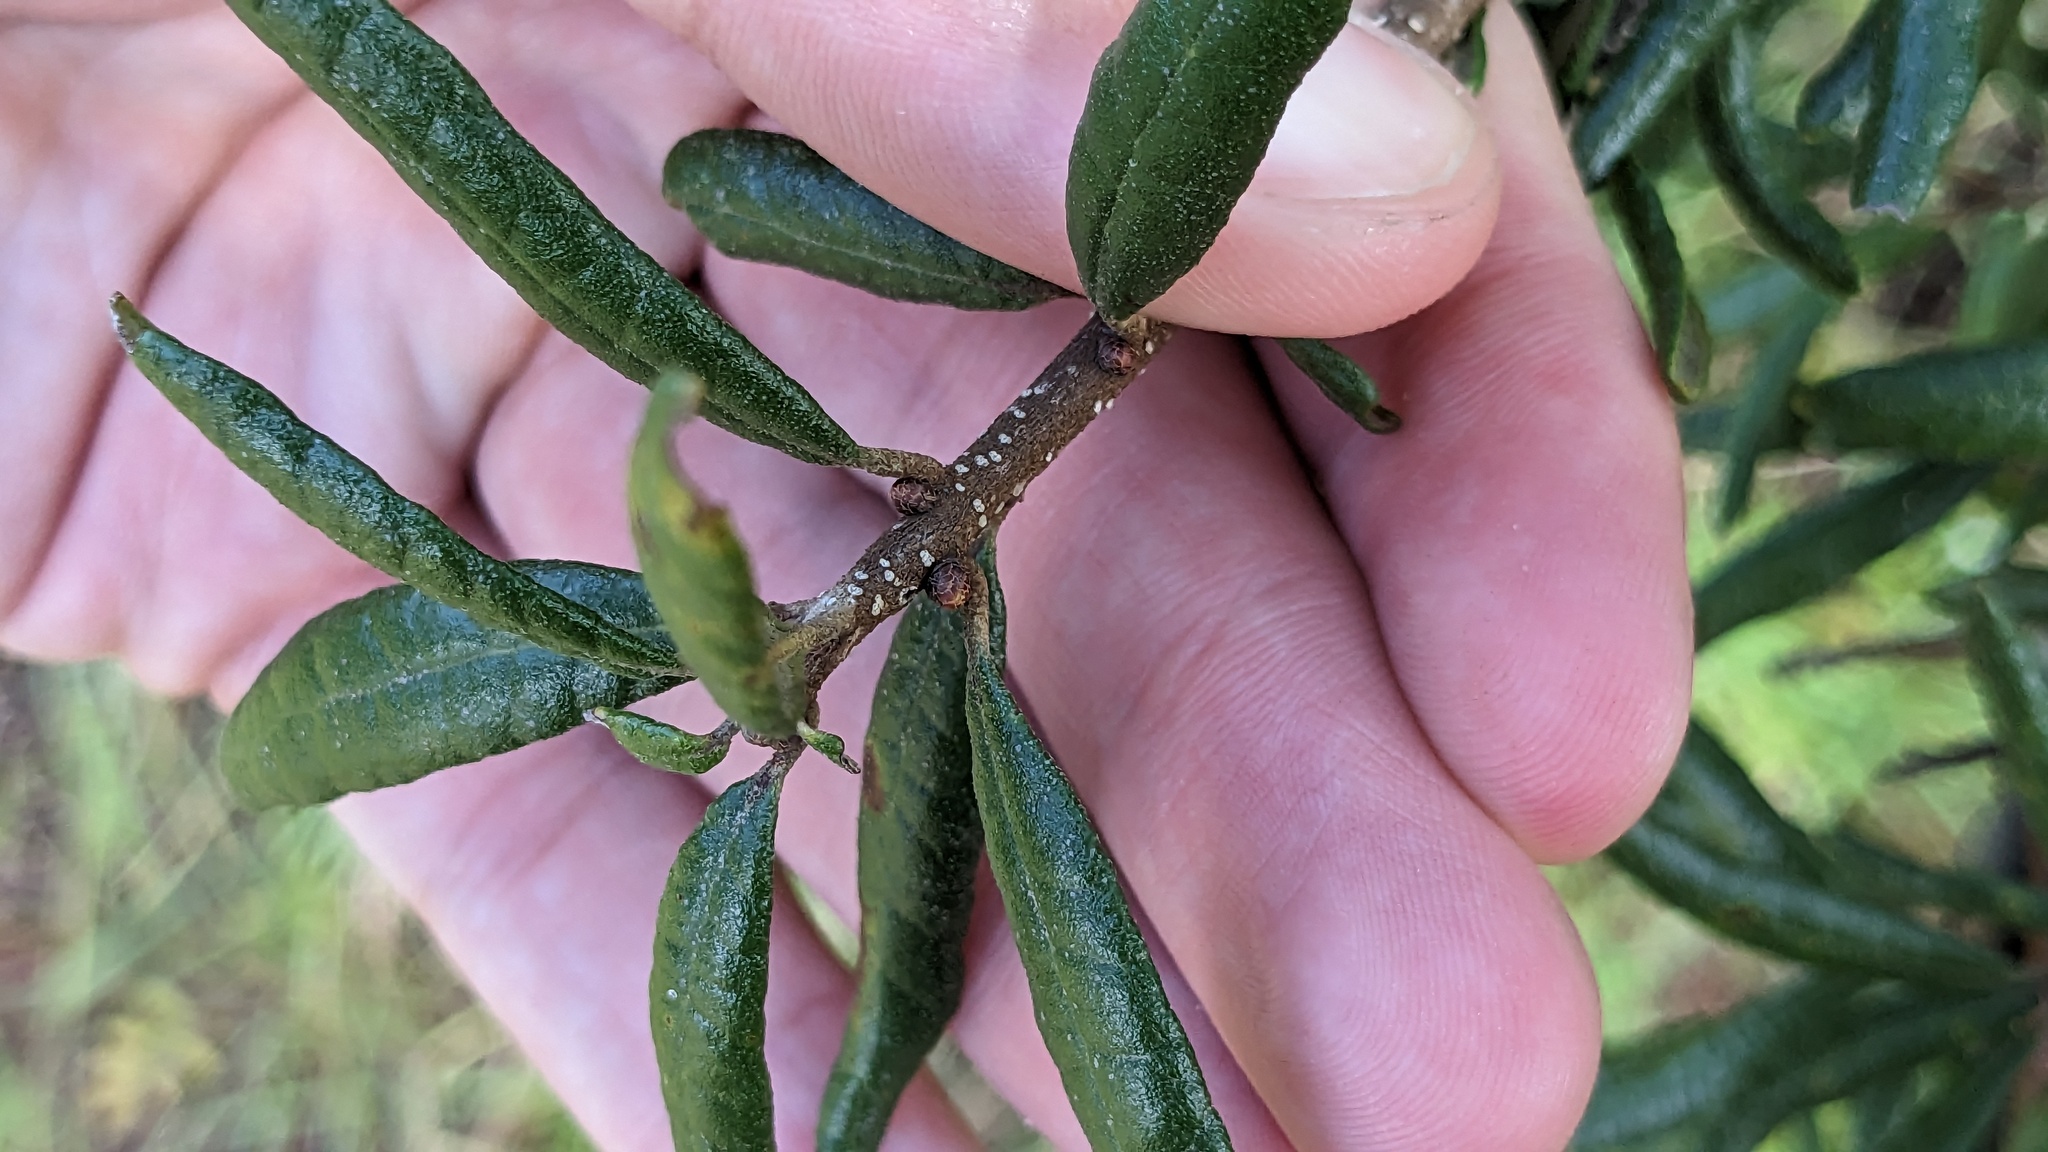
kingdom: Animalia
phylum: Arthropoda
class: Insecta
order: Hymenoptera
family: Cynipidae
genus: Andricus
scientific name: Andricus quercusfoliatus
